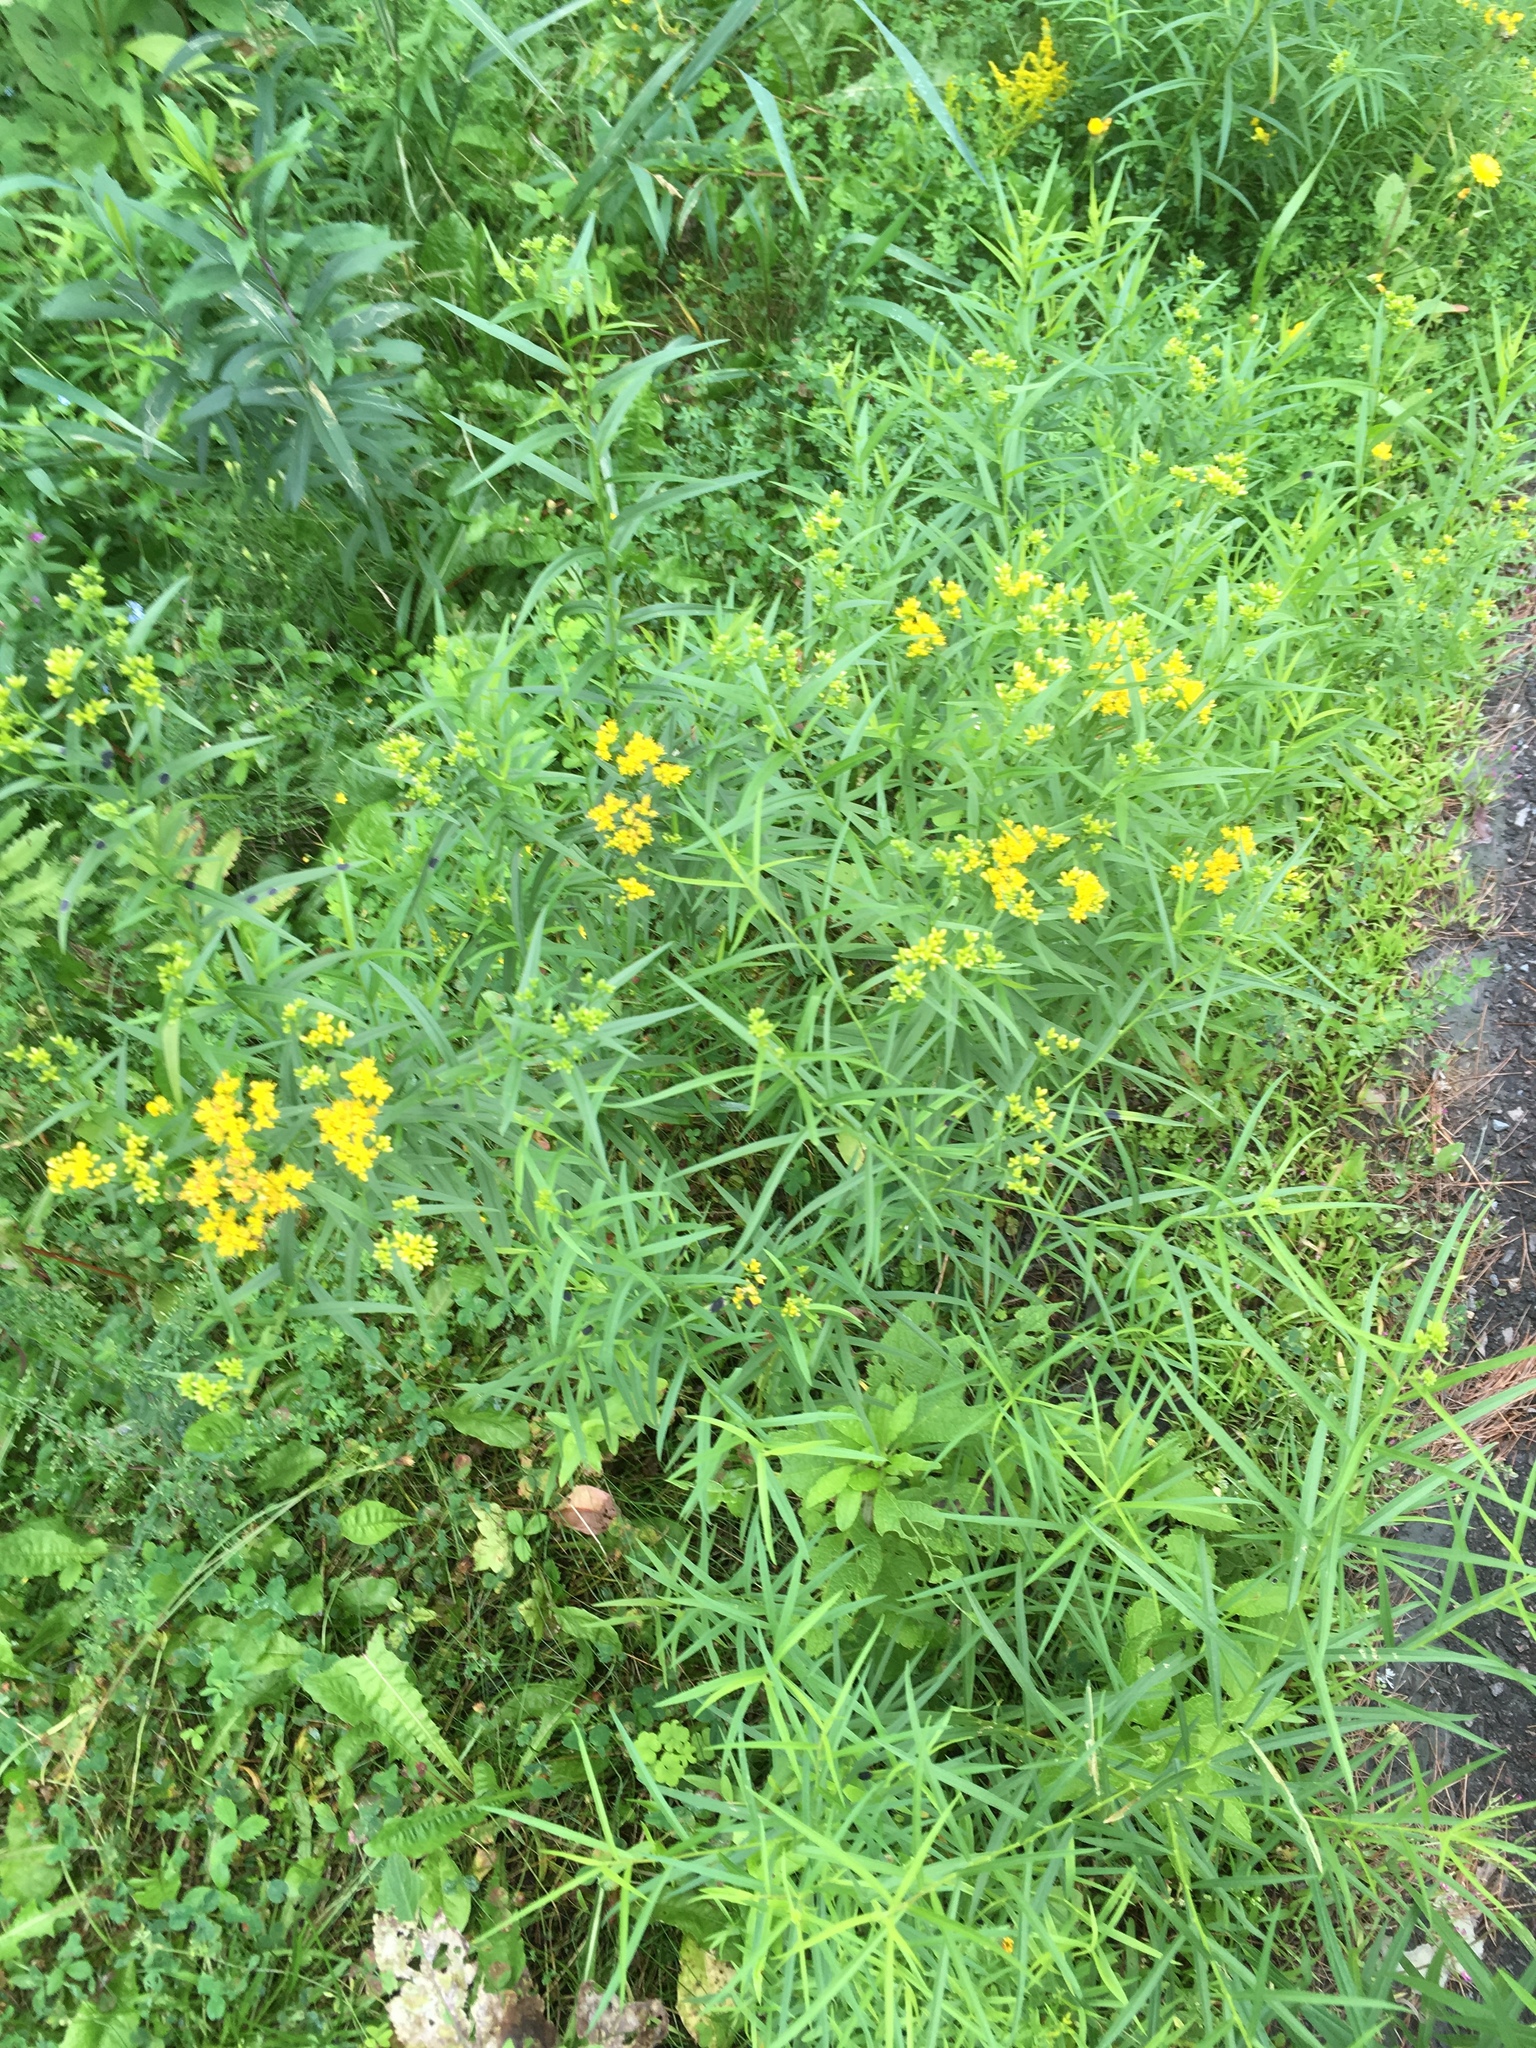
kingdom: Plantae
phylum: Tracheophyta
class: Magnoliopsida
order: Asterales
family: Asteraceae
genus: Euthamia
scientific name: Euthamia graminifolia
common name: Common goldentop
